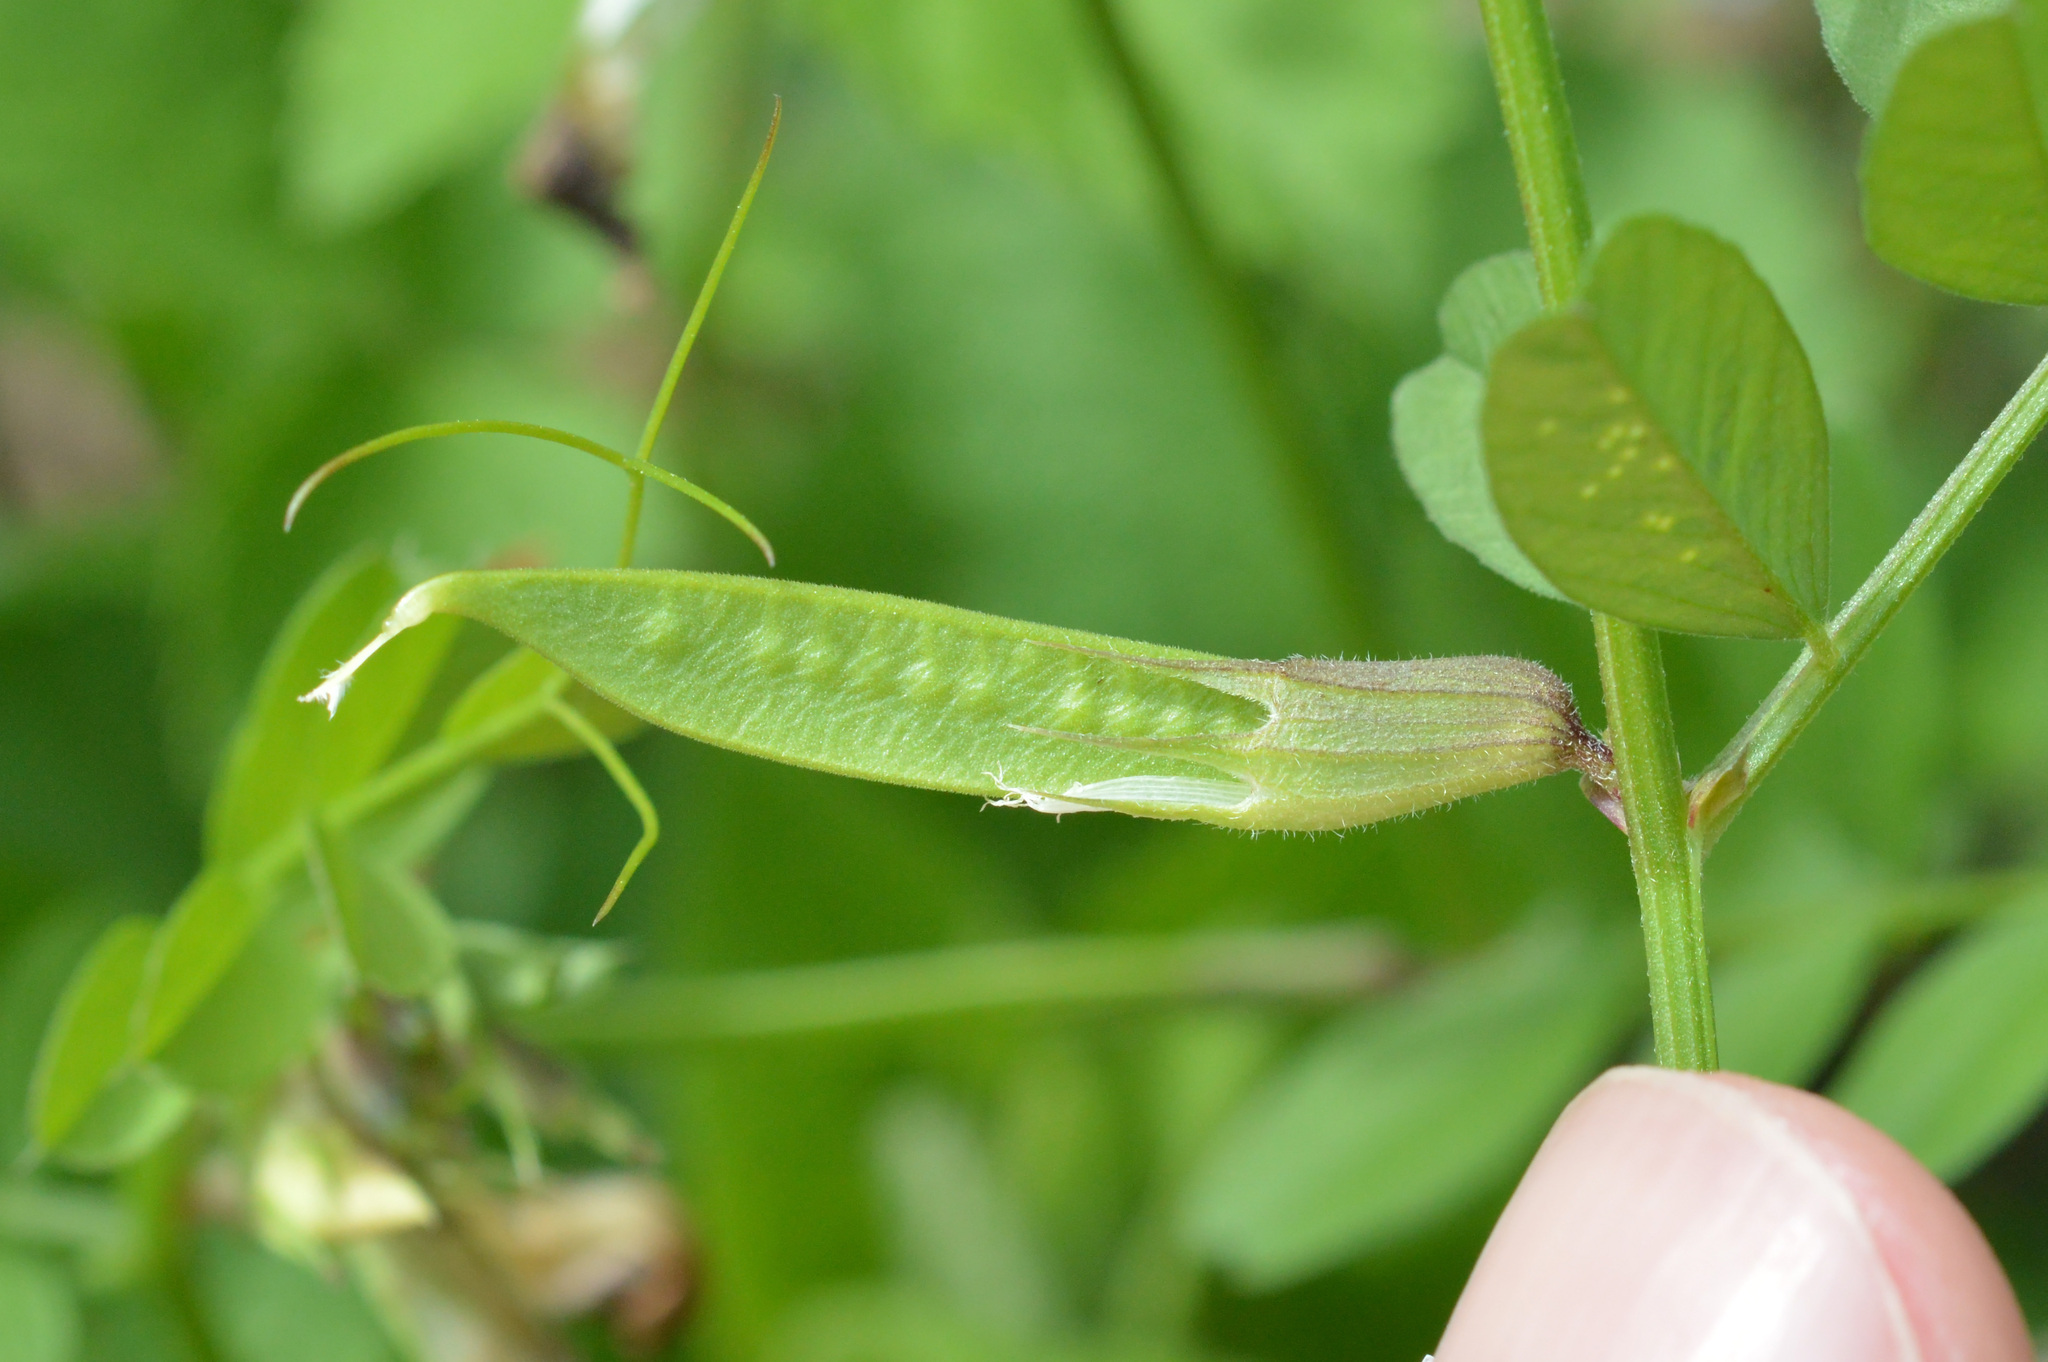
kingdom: Plantae
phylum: Tracheophyta
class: Magnoliopsida
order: Fabales
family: Fabaceae
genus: Vicia
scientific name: Vicia grandiflora
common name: Large yellow vetch
